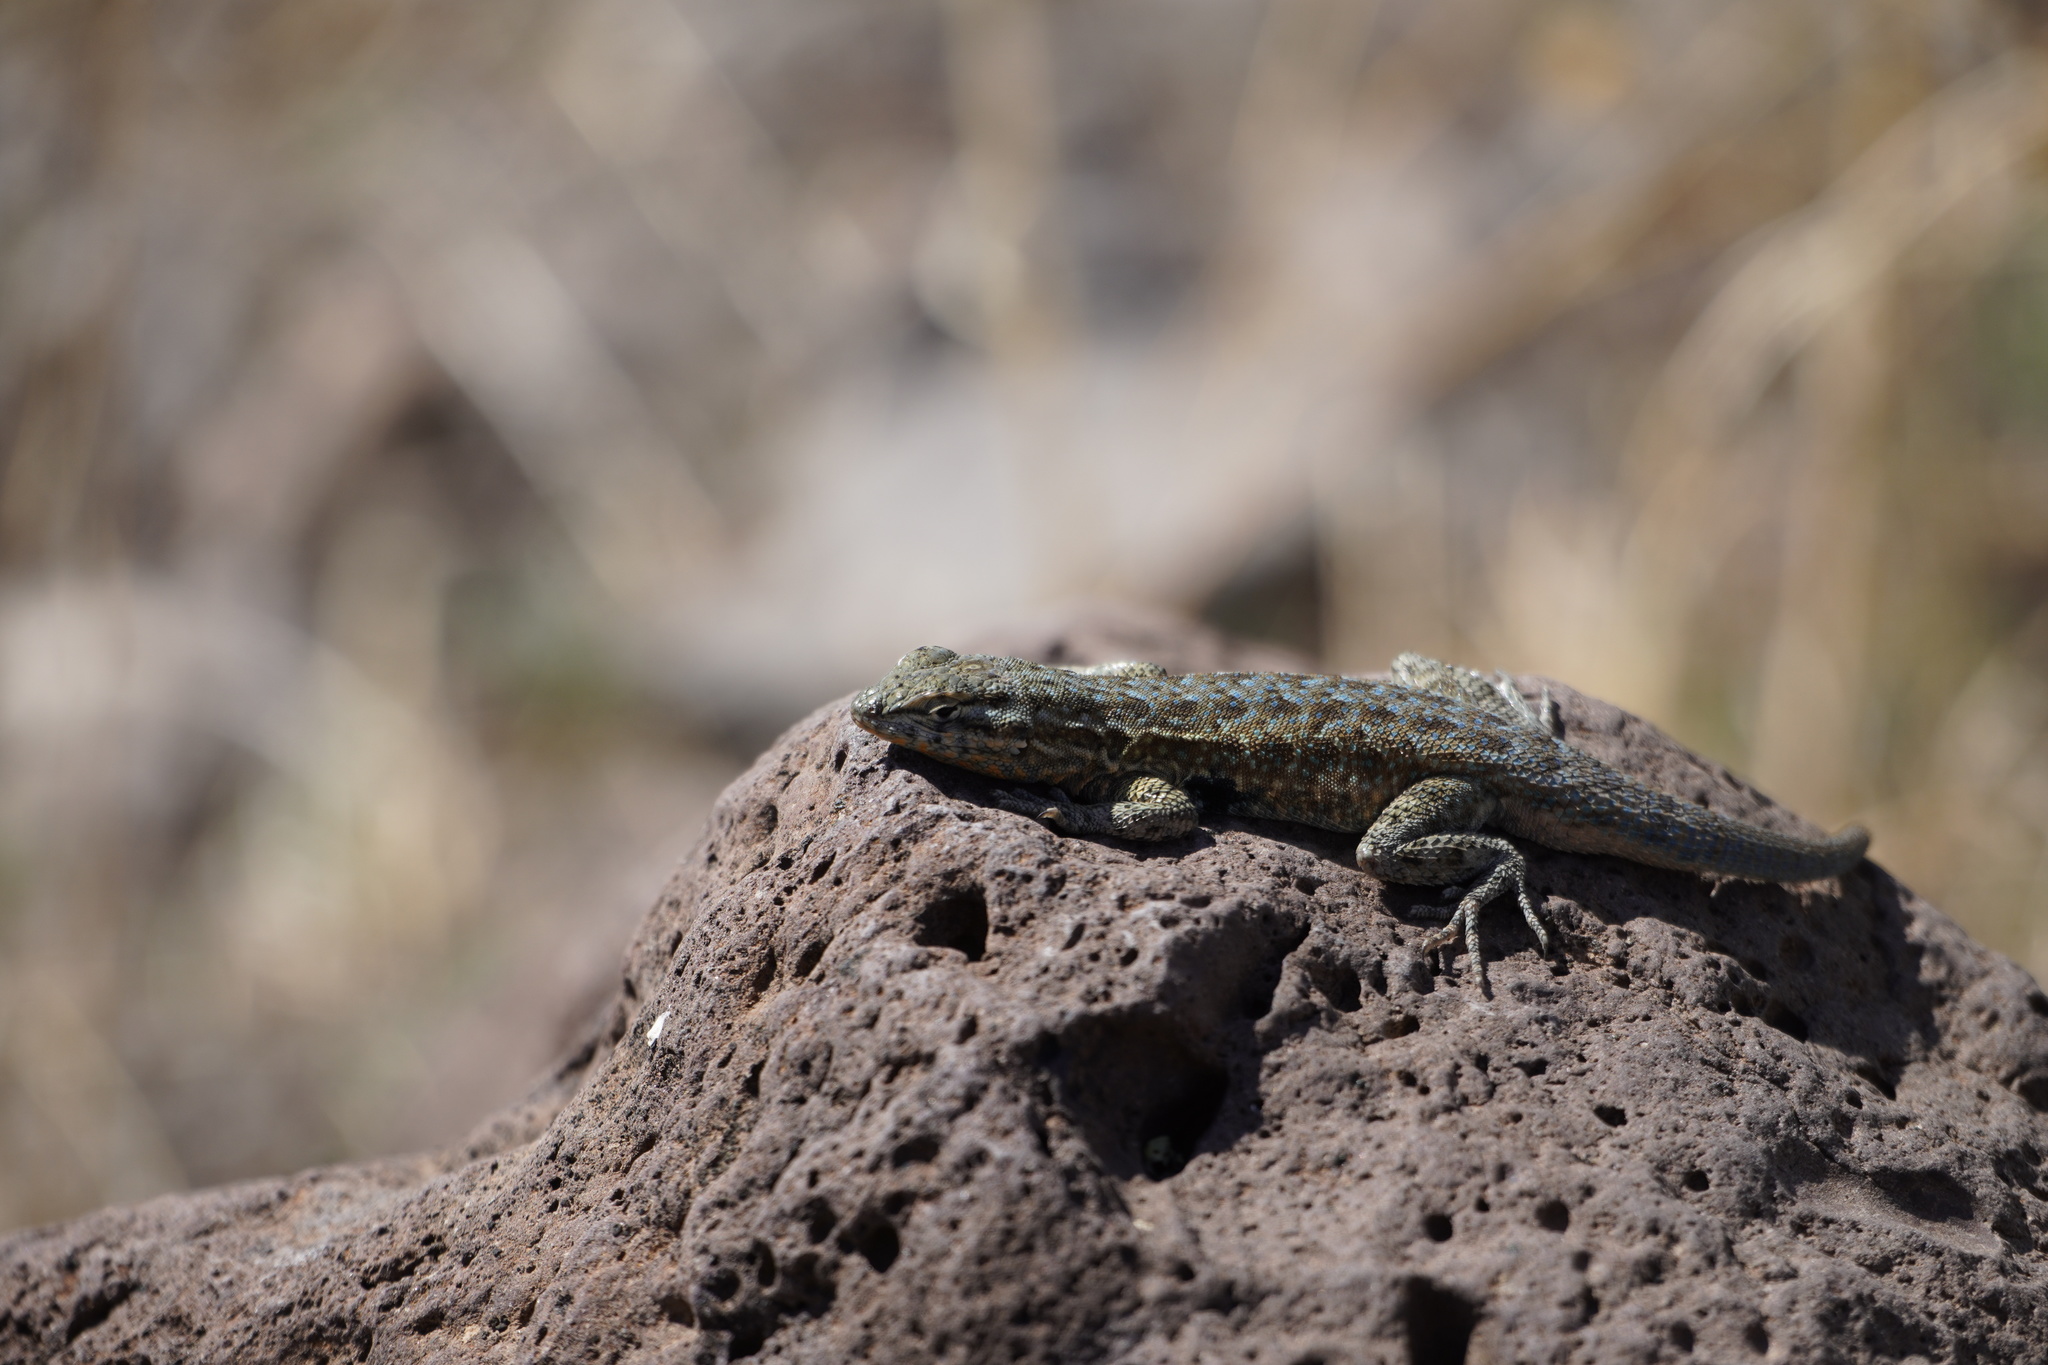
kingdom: Animalia
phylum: Chordata
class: Squamata
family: Phrynosomatidae
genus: Uta
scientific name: Uta stansburiana
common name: Side-blotched lizard
